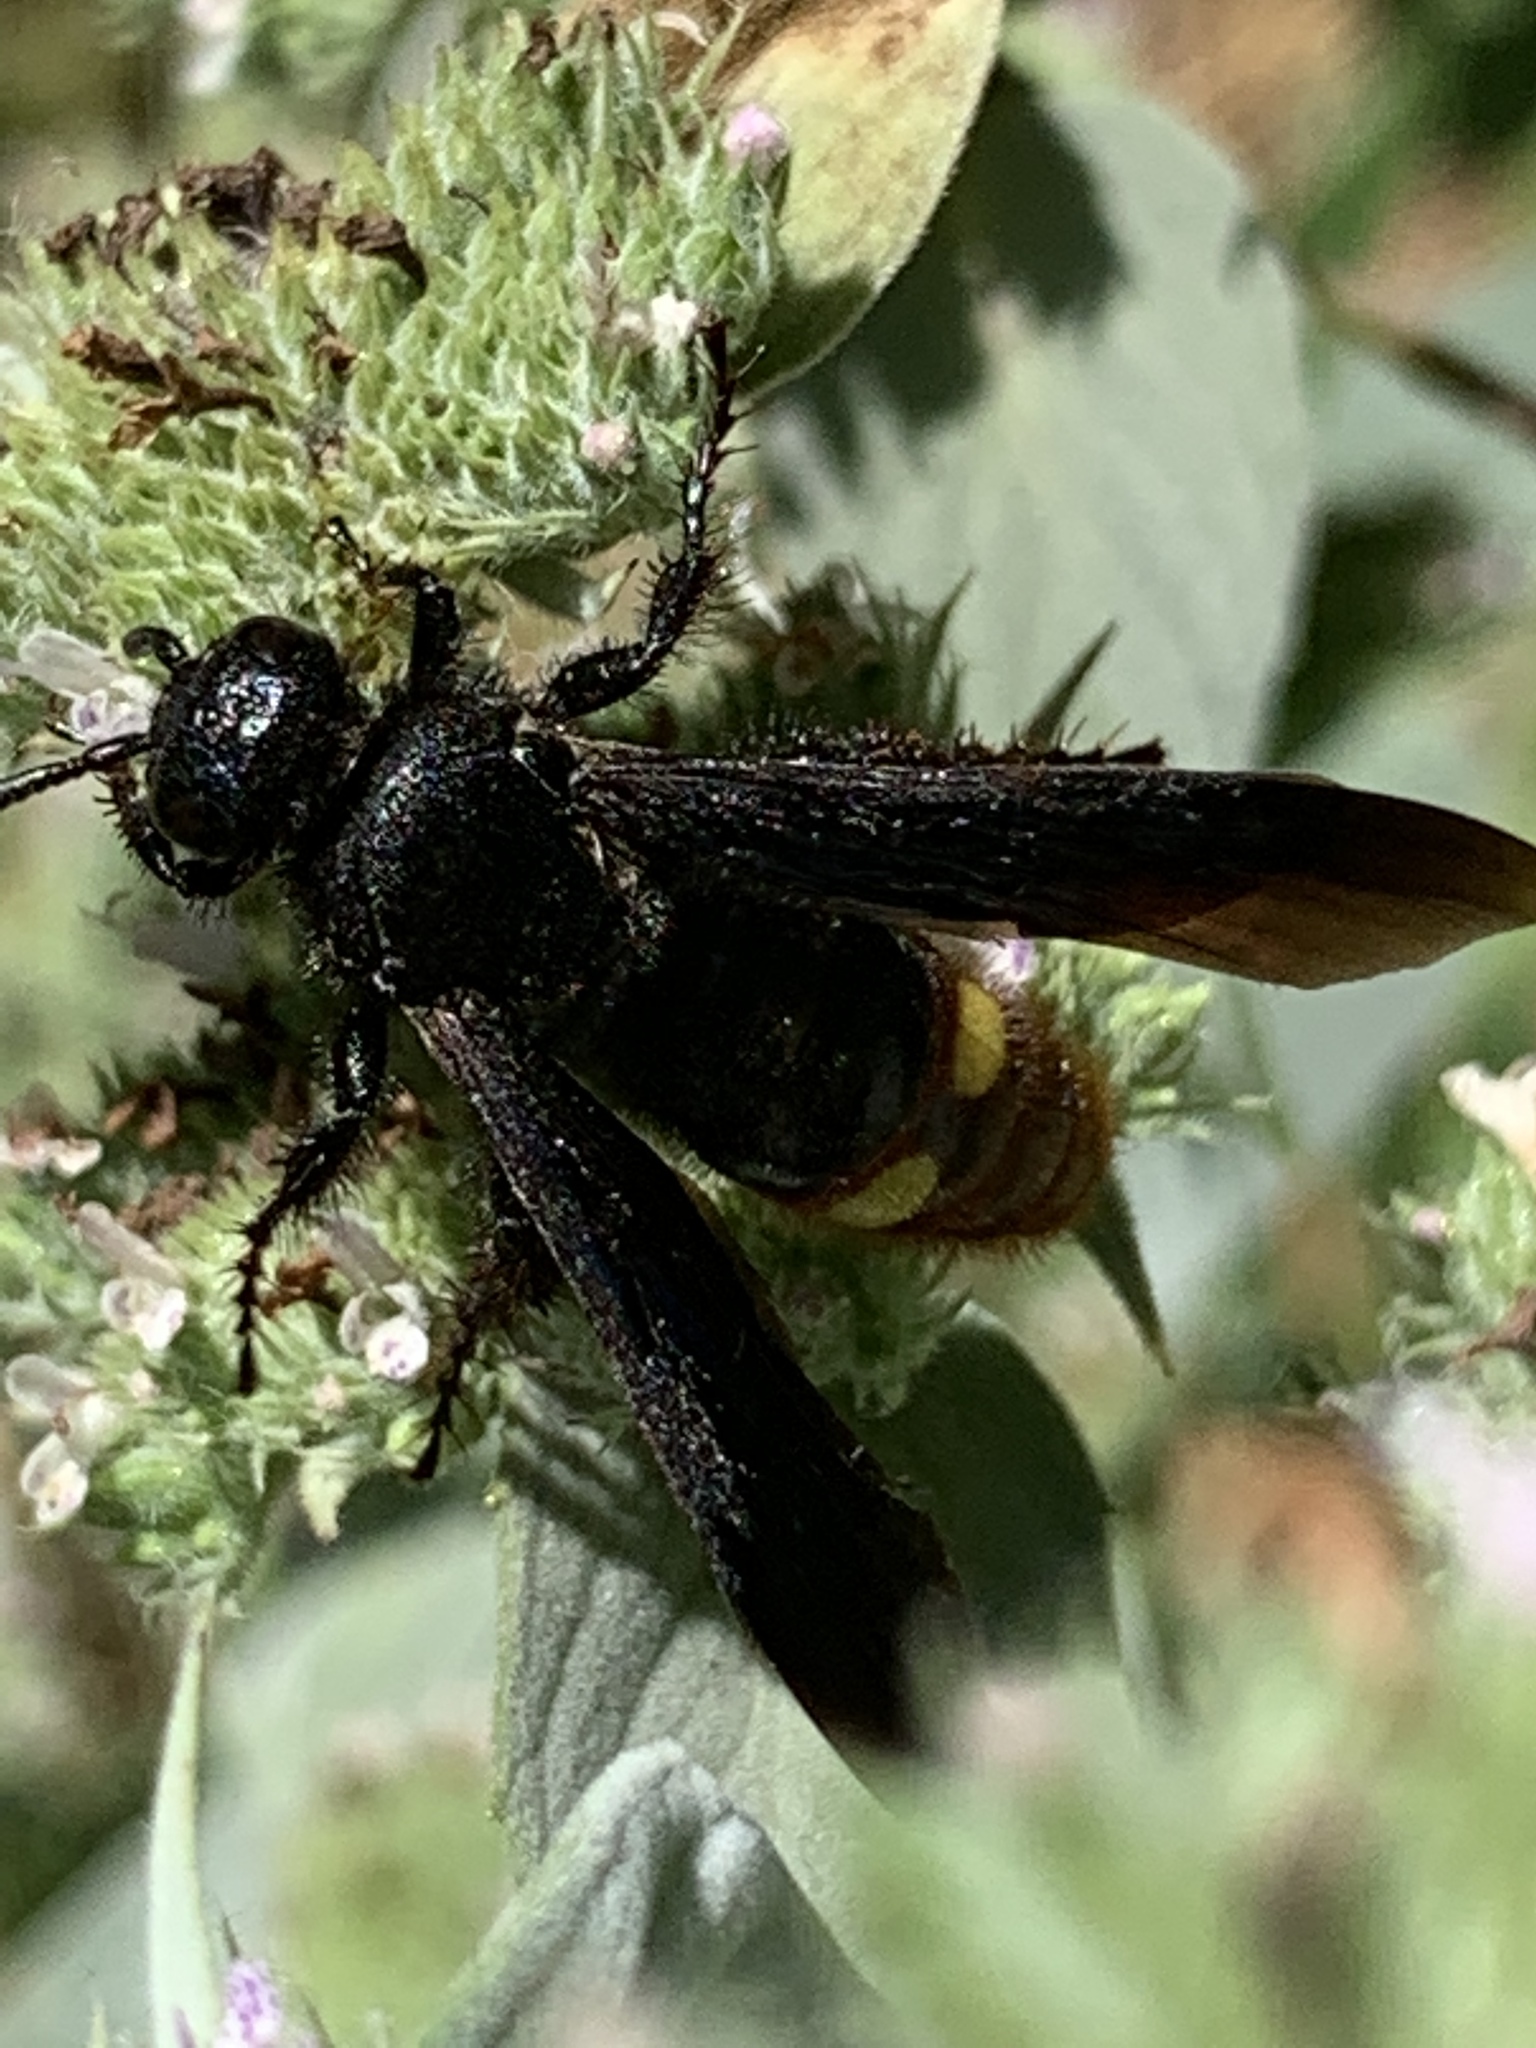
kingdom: Animalia
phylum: Arthropoda
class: Insecta
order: Hymenoptera
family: Scoliidae
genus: Scolia
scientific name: Scolia dubia
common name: Blue-winged scoliid wasp
